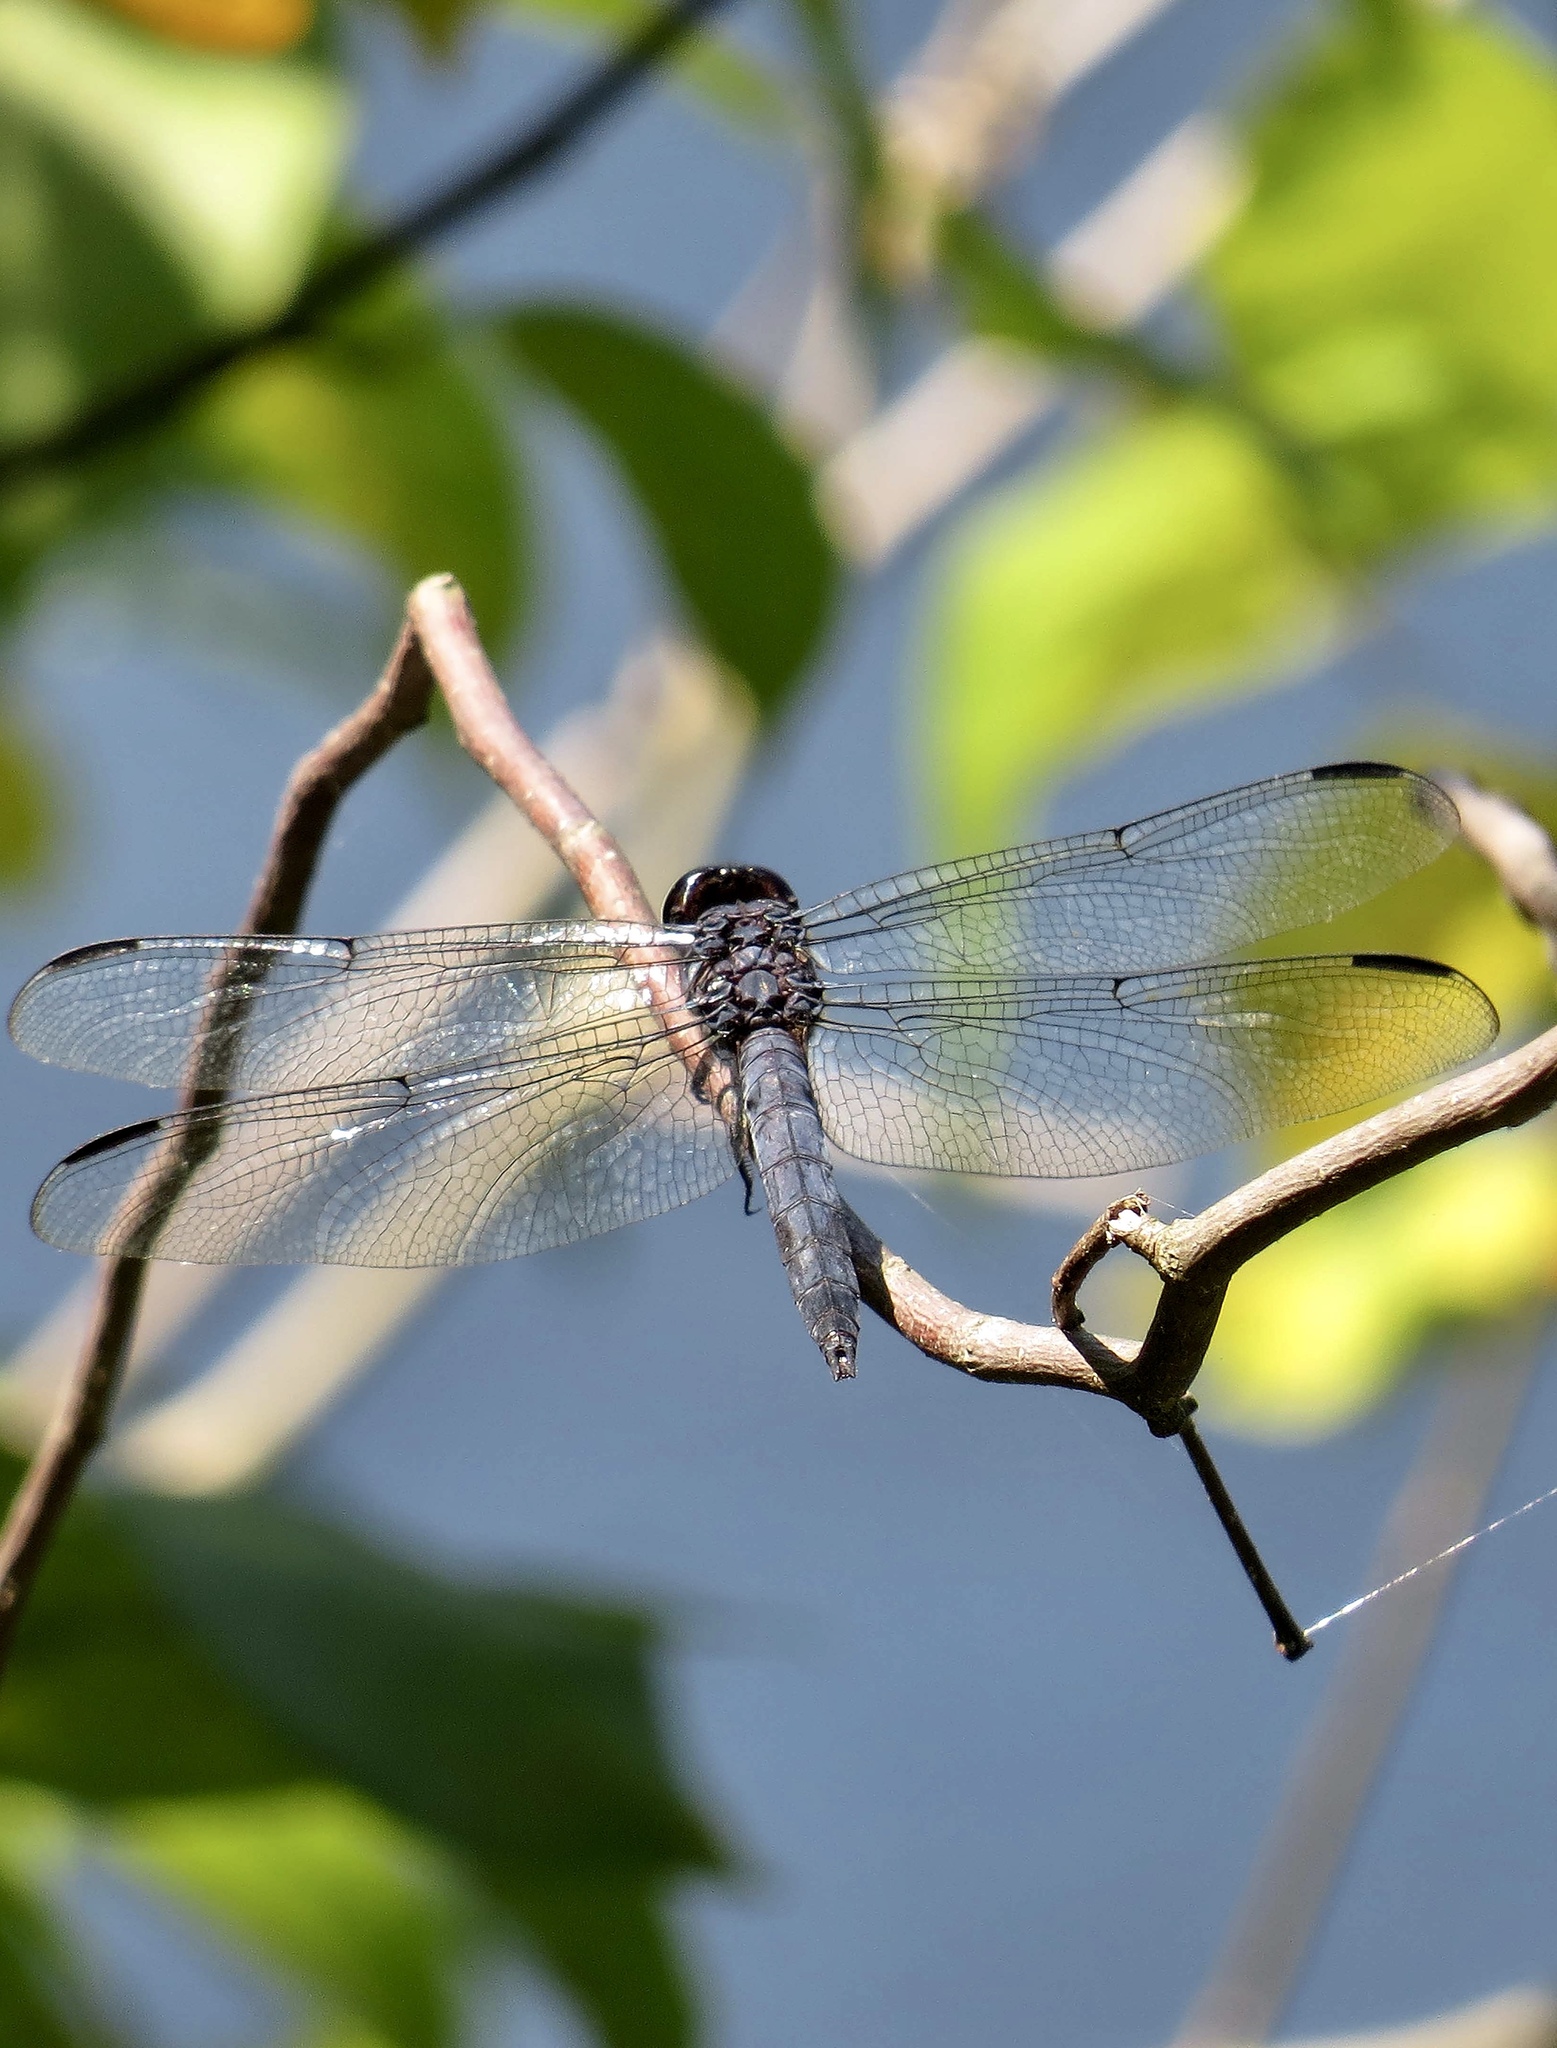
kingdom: Animalia
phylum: Arthropoda
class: Insecta
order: Odonata
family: Libellulidae
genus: Libellula
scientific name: Libellula incesta
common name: Slaty skimmer
